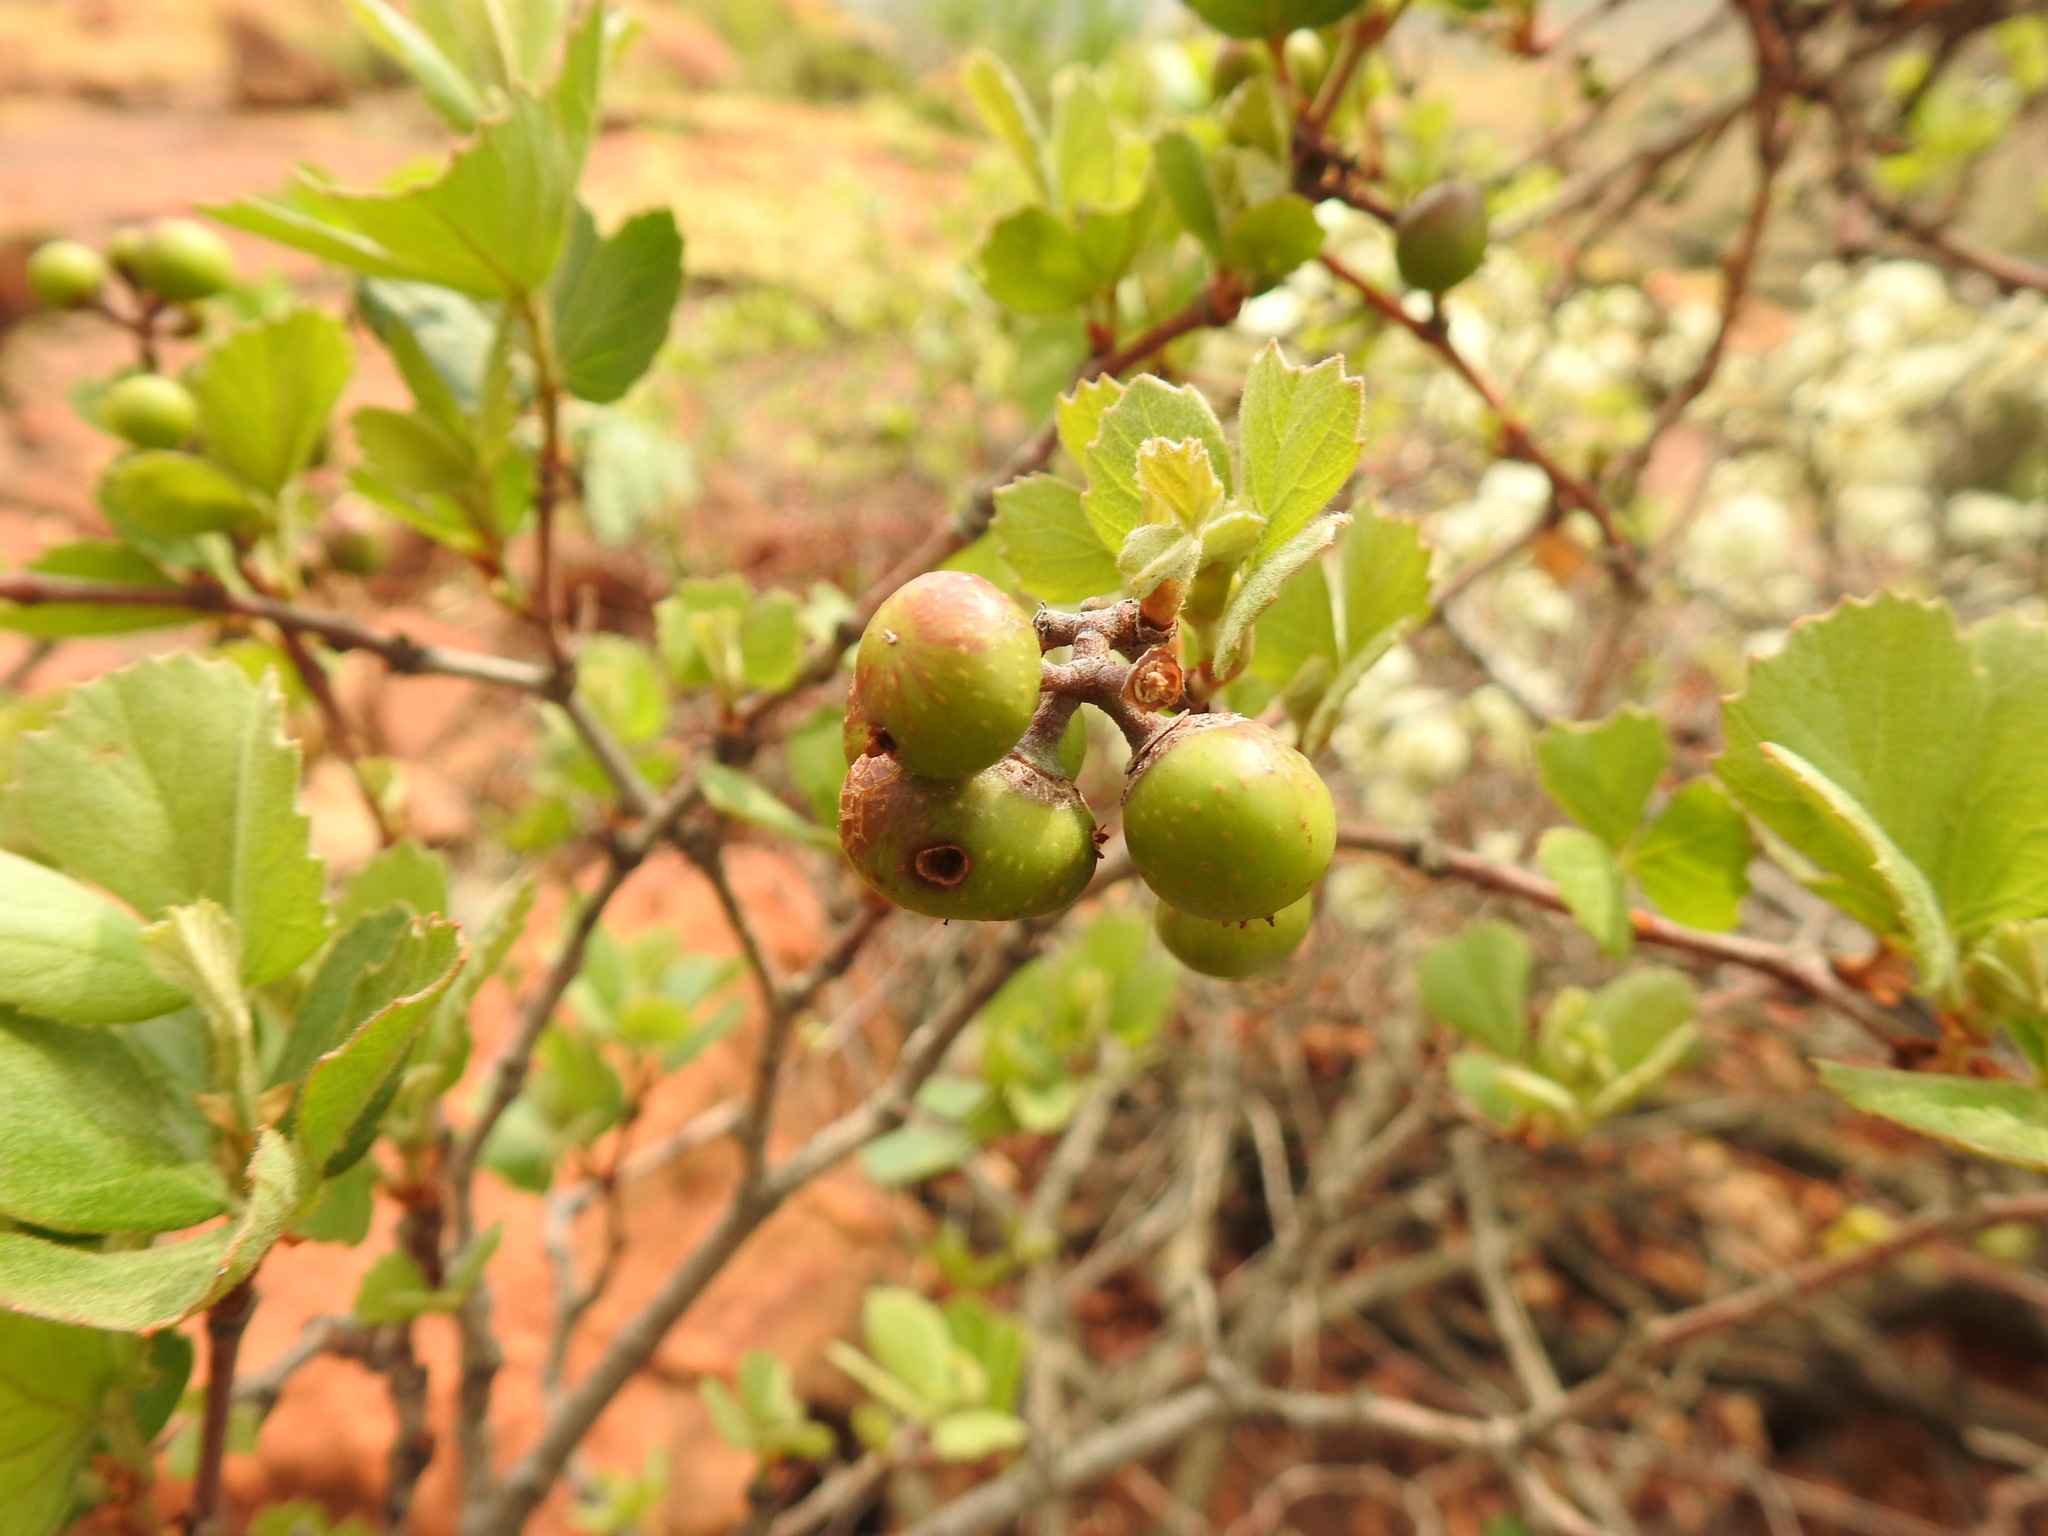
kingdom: Plantae
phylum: Tracheophyta
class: Magnoliopsida
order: Sapindales
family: Anacardiaceae
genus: Searsia
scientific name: Searsia dentata
